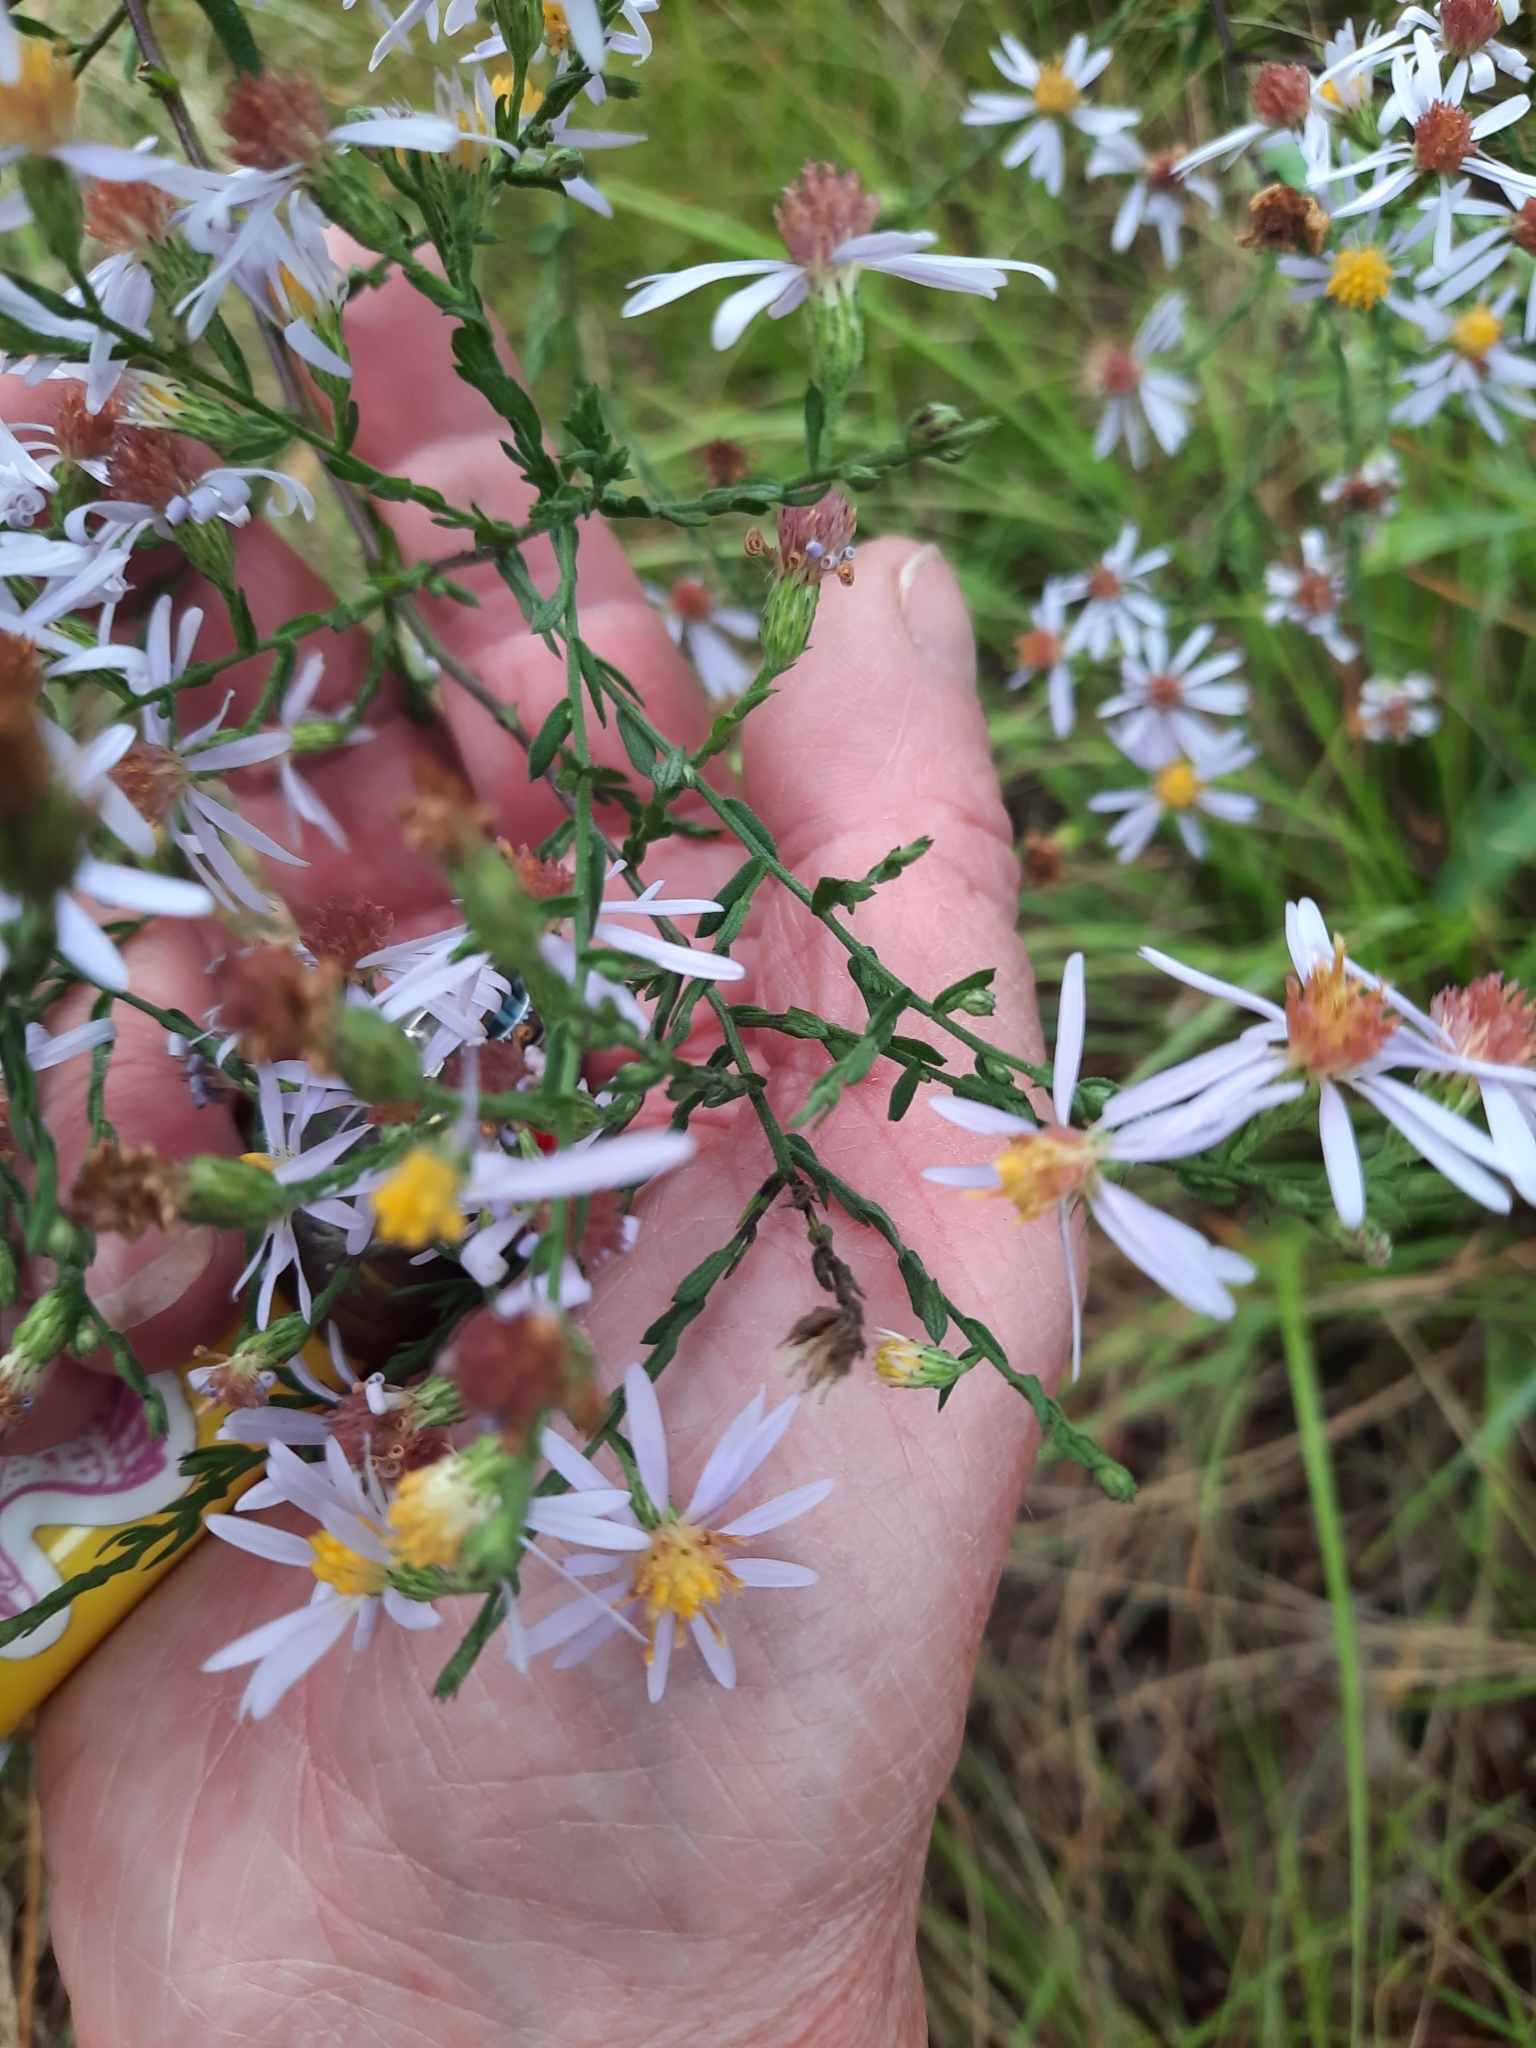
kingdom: Plantae
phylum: Tracheophyta
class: Magnoliopsida
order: Asterales
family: Asteraceae
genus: Symphyotrichum
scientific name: Symphyotrichum undulatum
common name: Clasping heart-leaf aster
